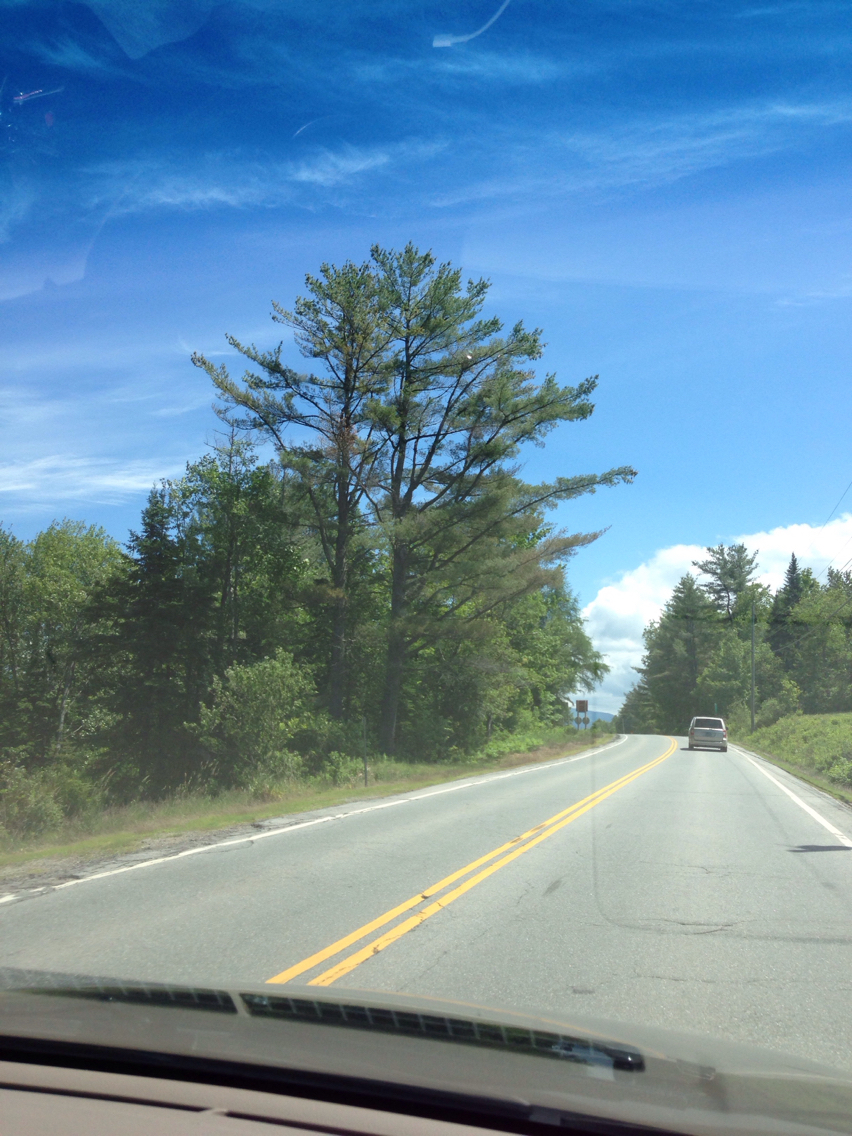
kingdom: Plantae
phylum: Tracheophyta
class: Pinopsida
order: Pinales
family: Pinaceae
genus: Pinus
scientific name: Pinus strobus
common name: Weymouth pine
